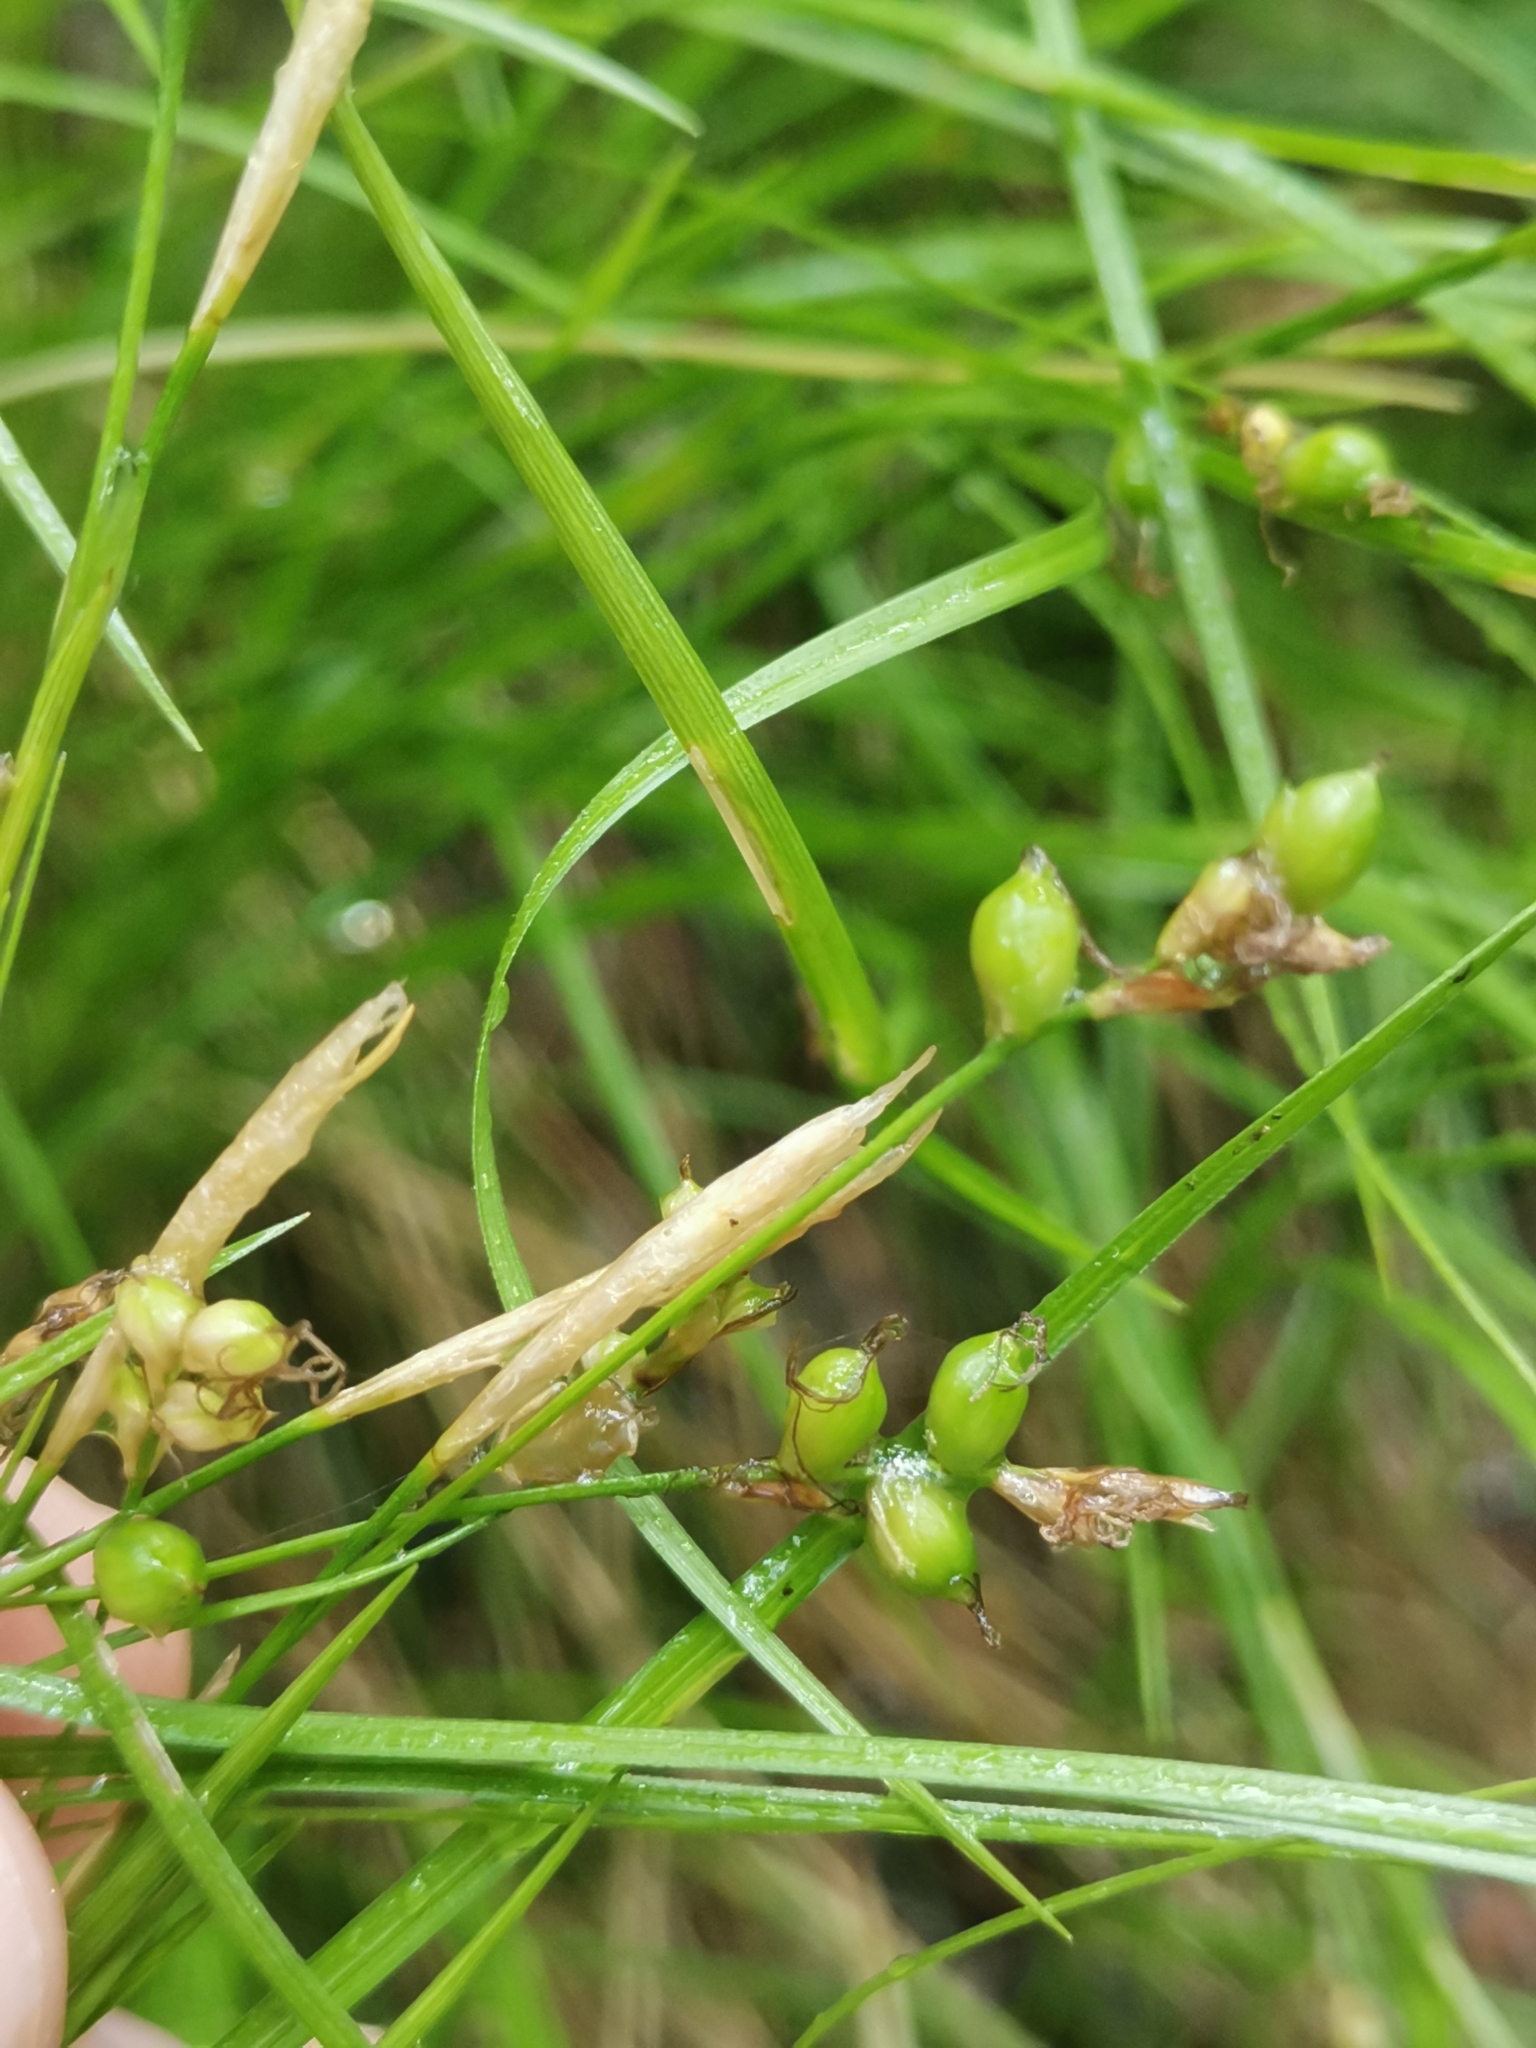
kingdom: Plantae
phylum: Tracheophyta
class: Liliopsida
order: Poales
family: Cyperaceae
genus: Carex
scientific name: Carex alba
